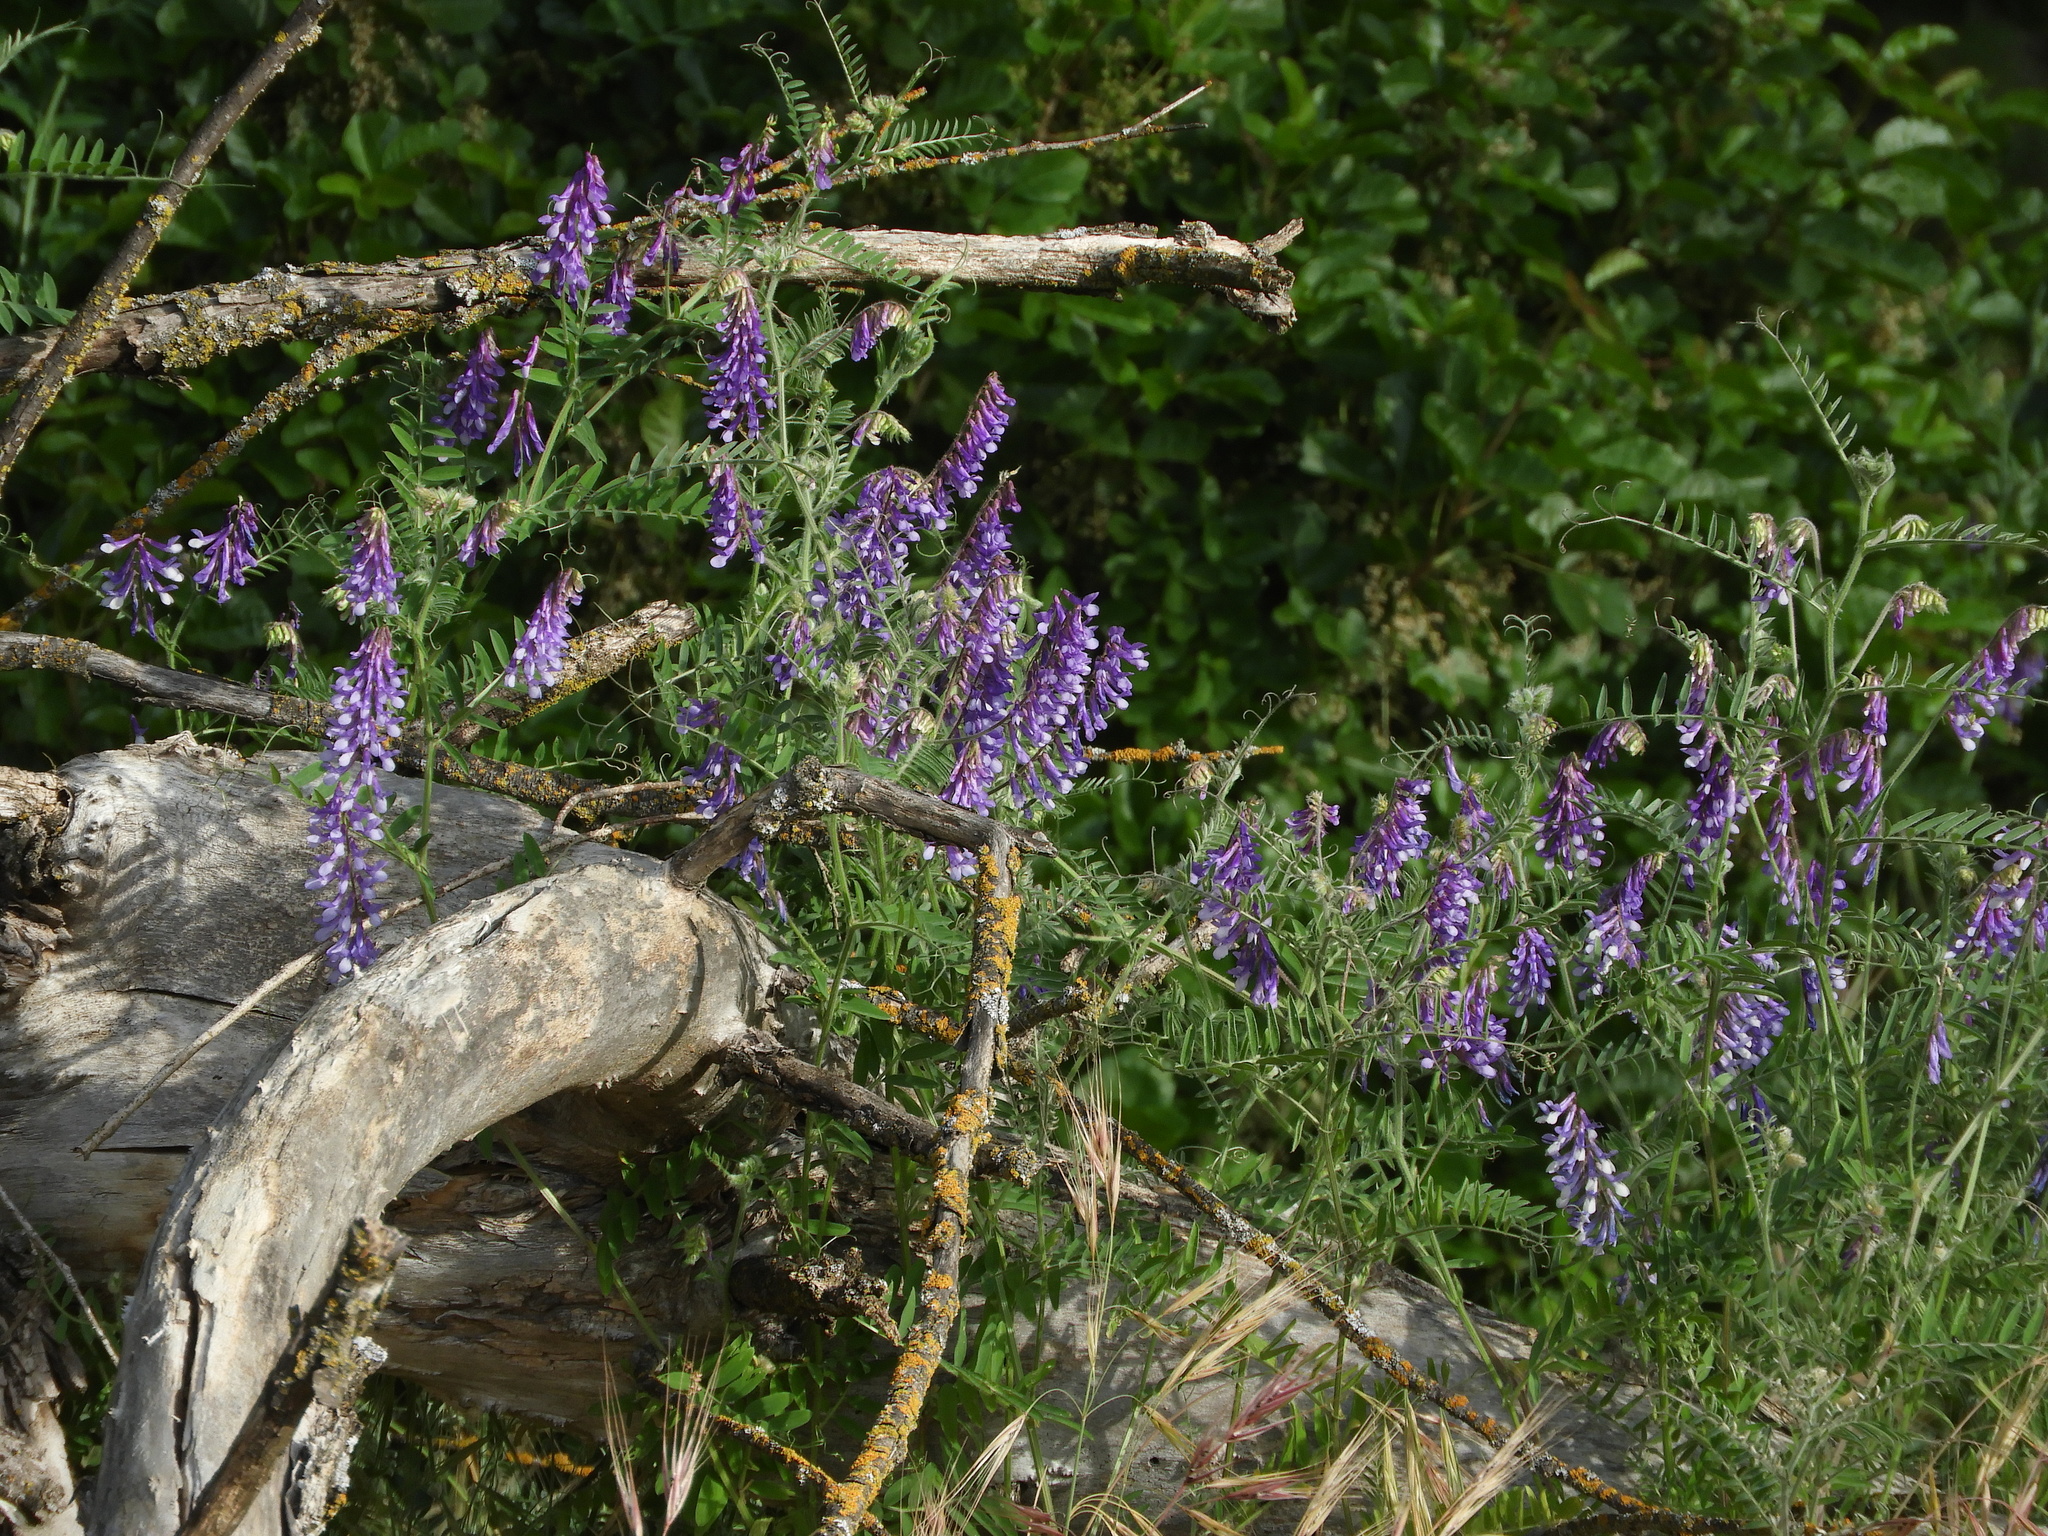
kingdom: Plantae
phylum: Tracheophyta
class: Magnoliopsida
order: Fabales
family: Fabaceae
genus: Vicia
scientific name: Vicia villosa
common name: Fodder vetch
